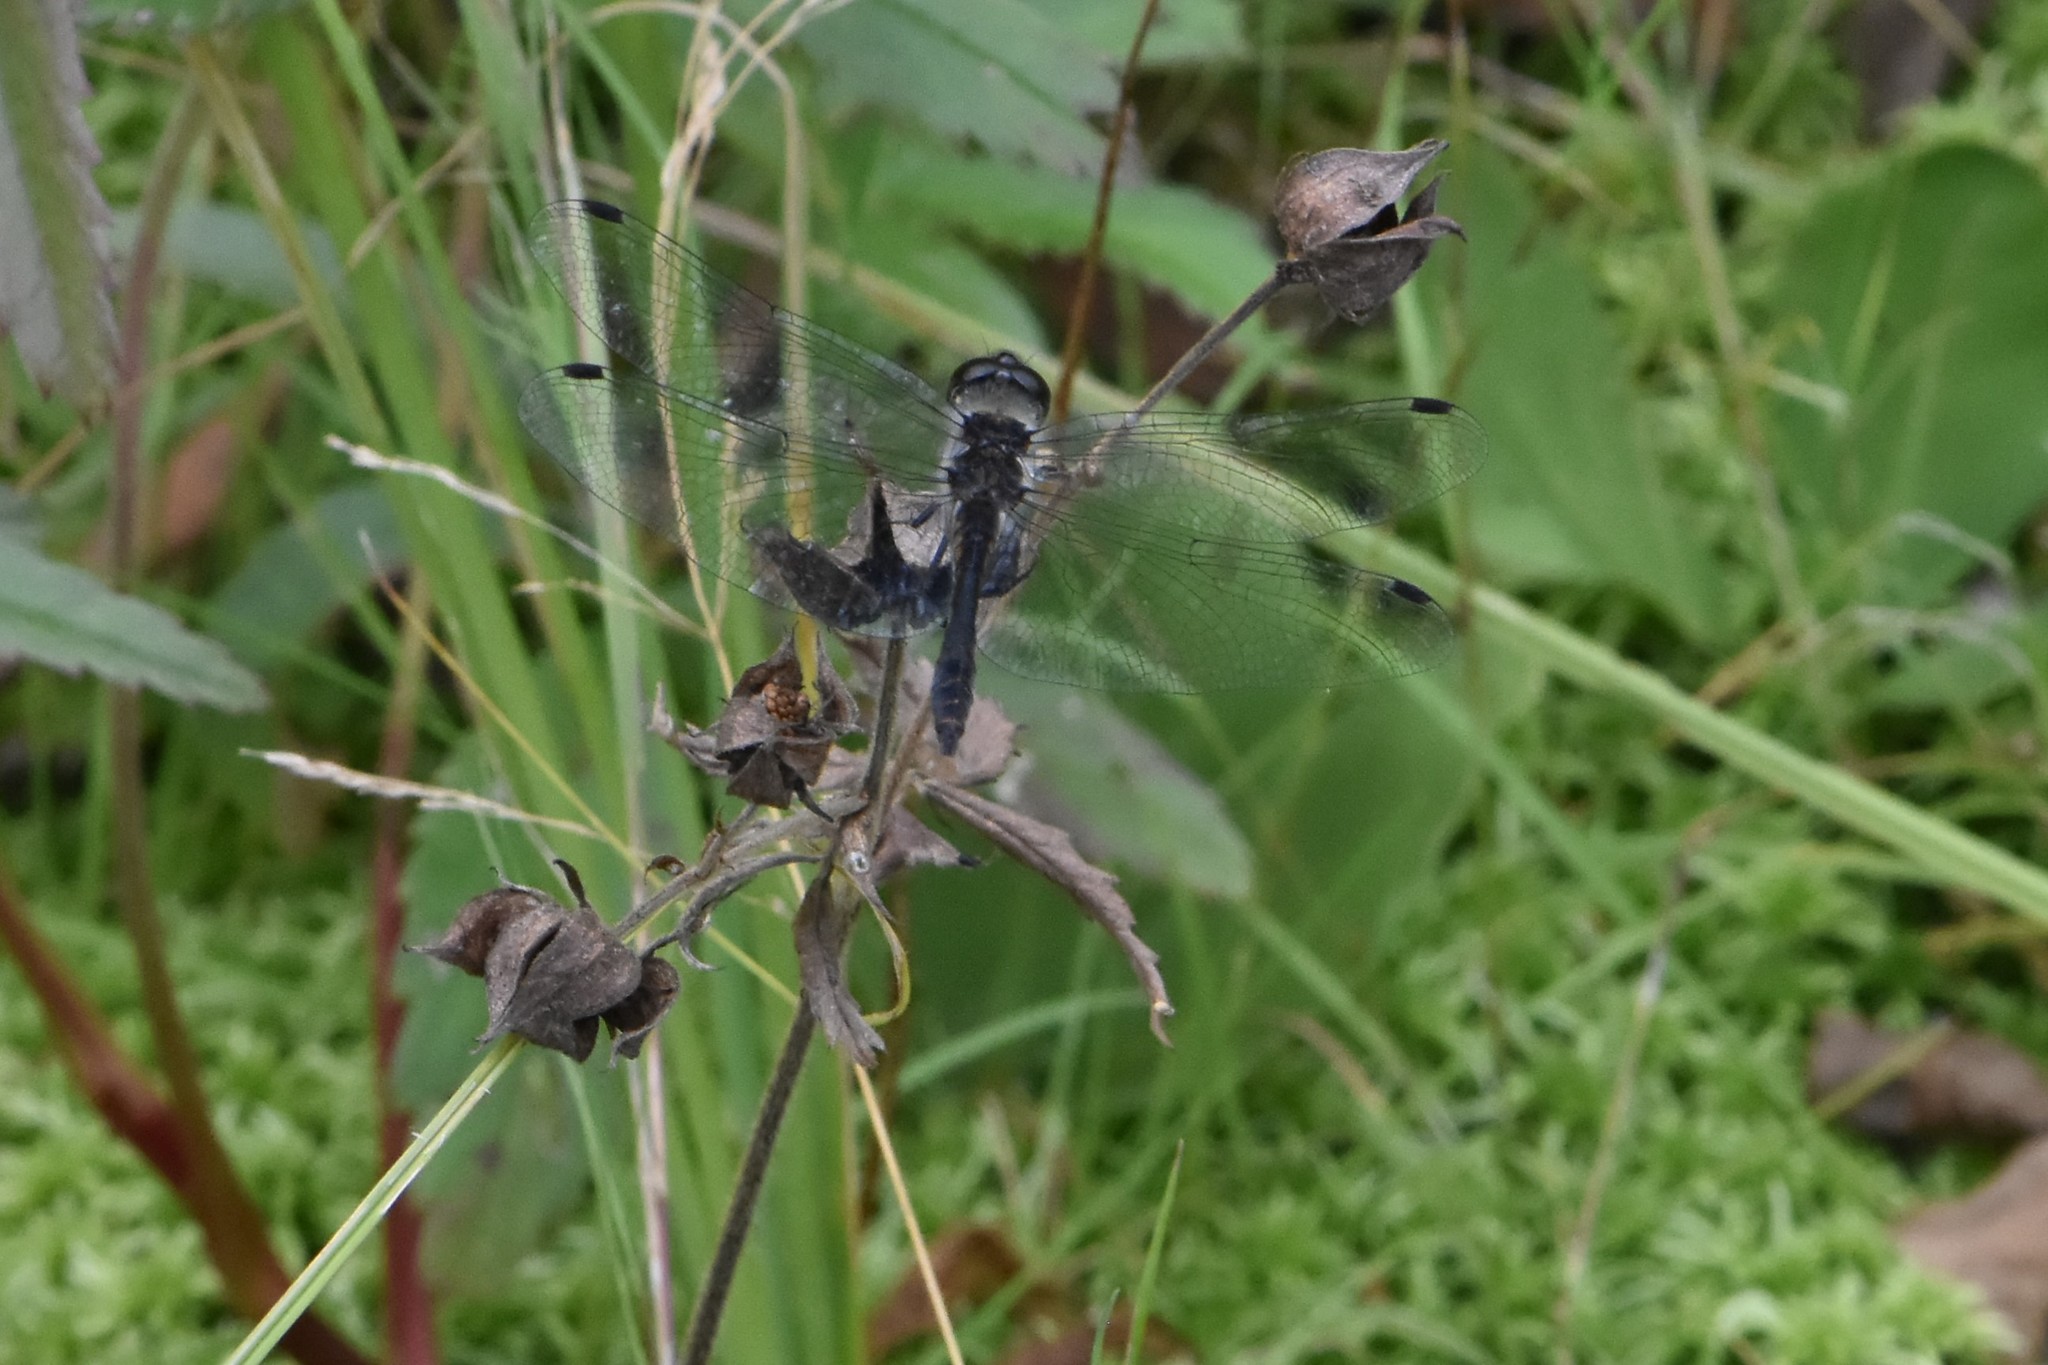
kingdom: Animalia
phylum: Arthropoda
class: Insecta
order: Odonata
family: Libellulidae
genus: Sympetrum
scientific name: Sympetrum danae
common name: Black darter
